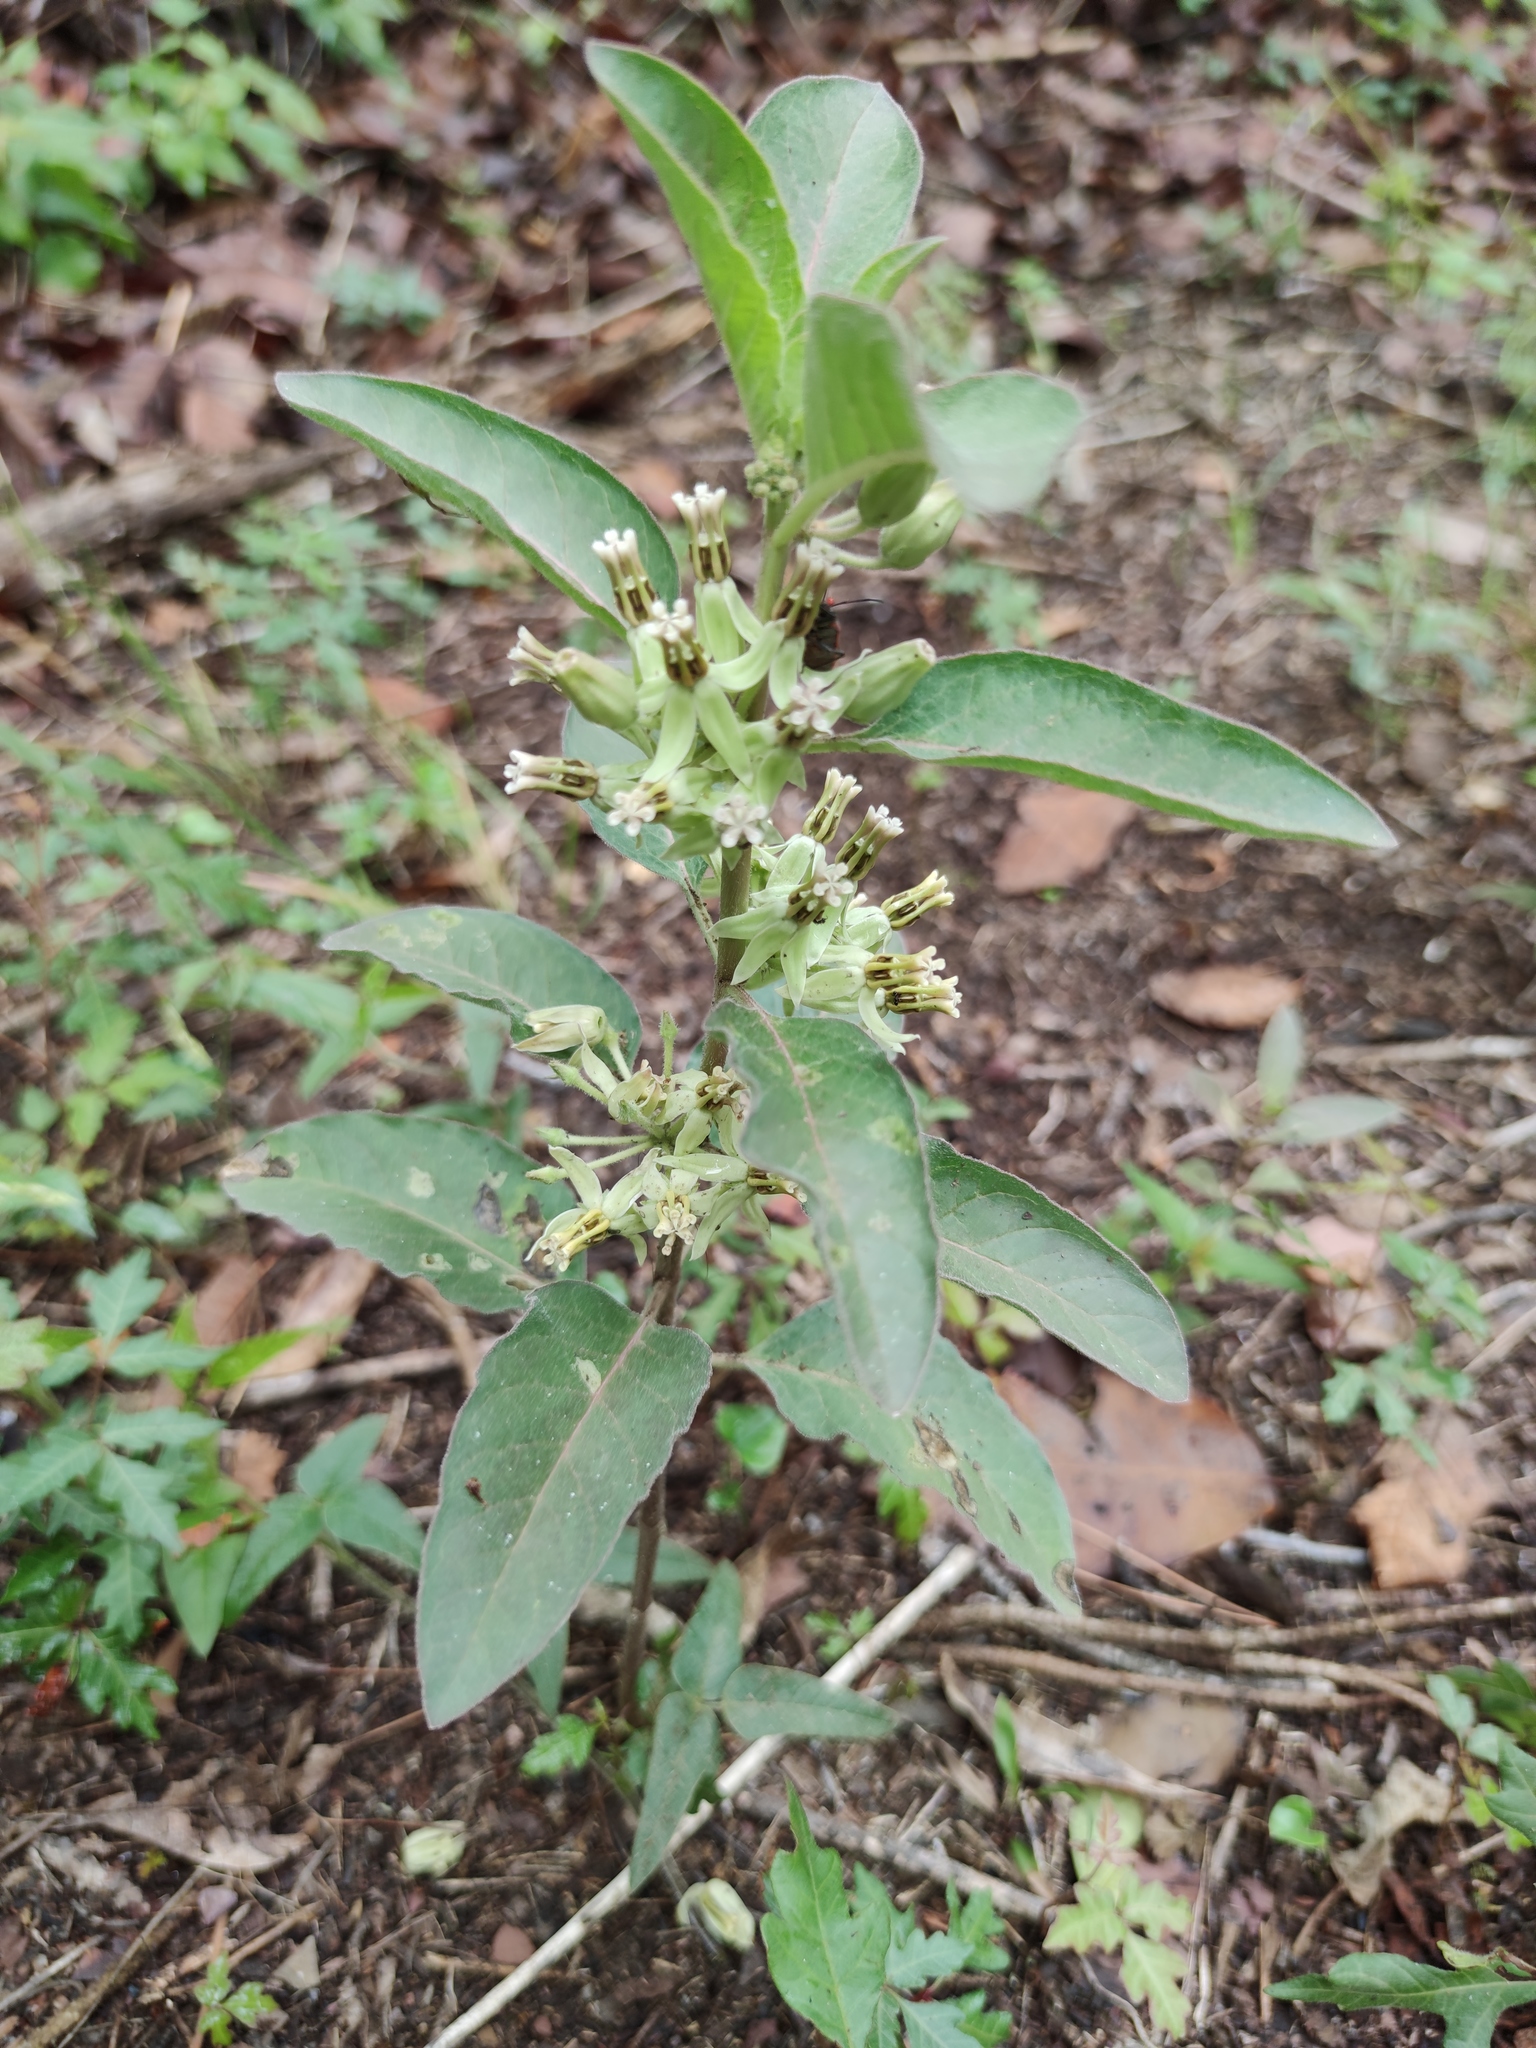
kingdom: Plantae
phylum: Tracheophyta
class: Magnoliopsida
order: Gentianales
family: Apocynaceae
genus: Asclepias
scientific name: Asclepias oenotheroides
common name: Zizotes milkweed
